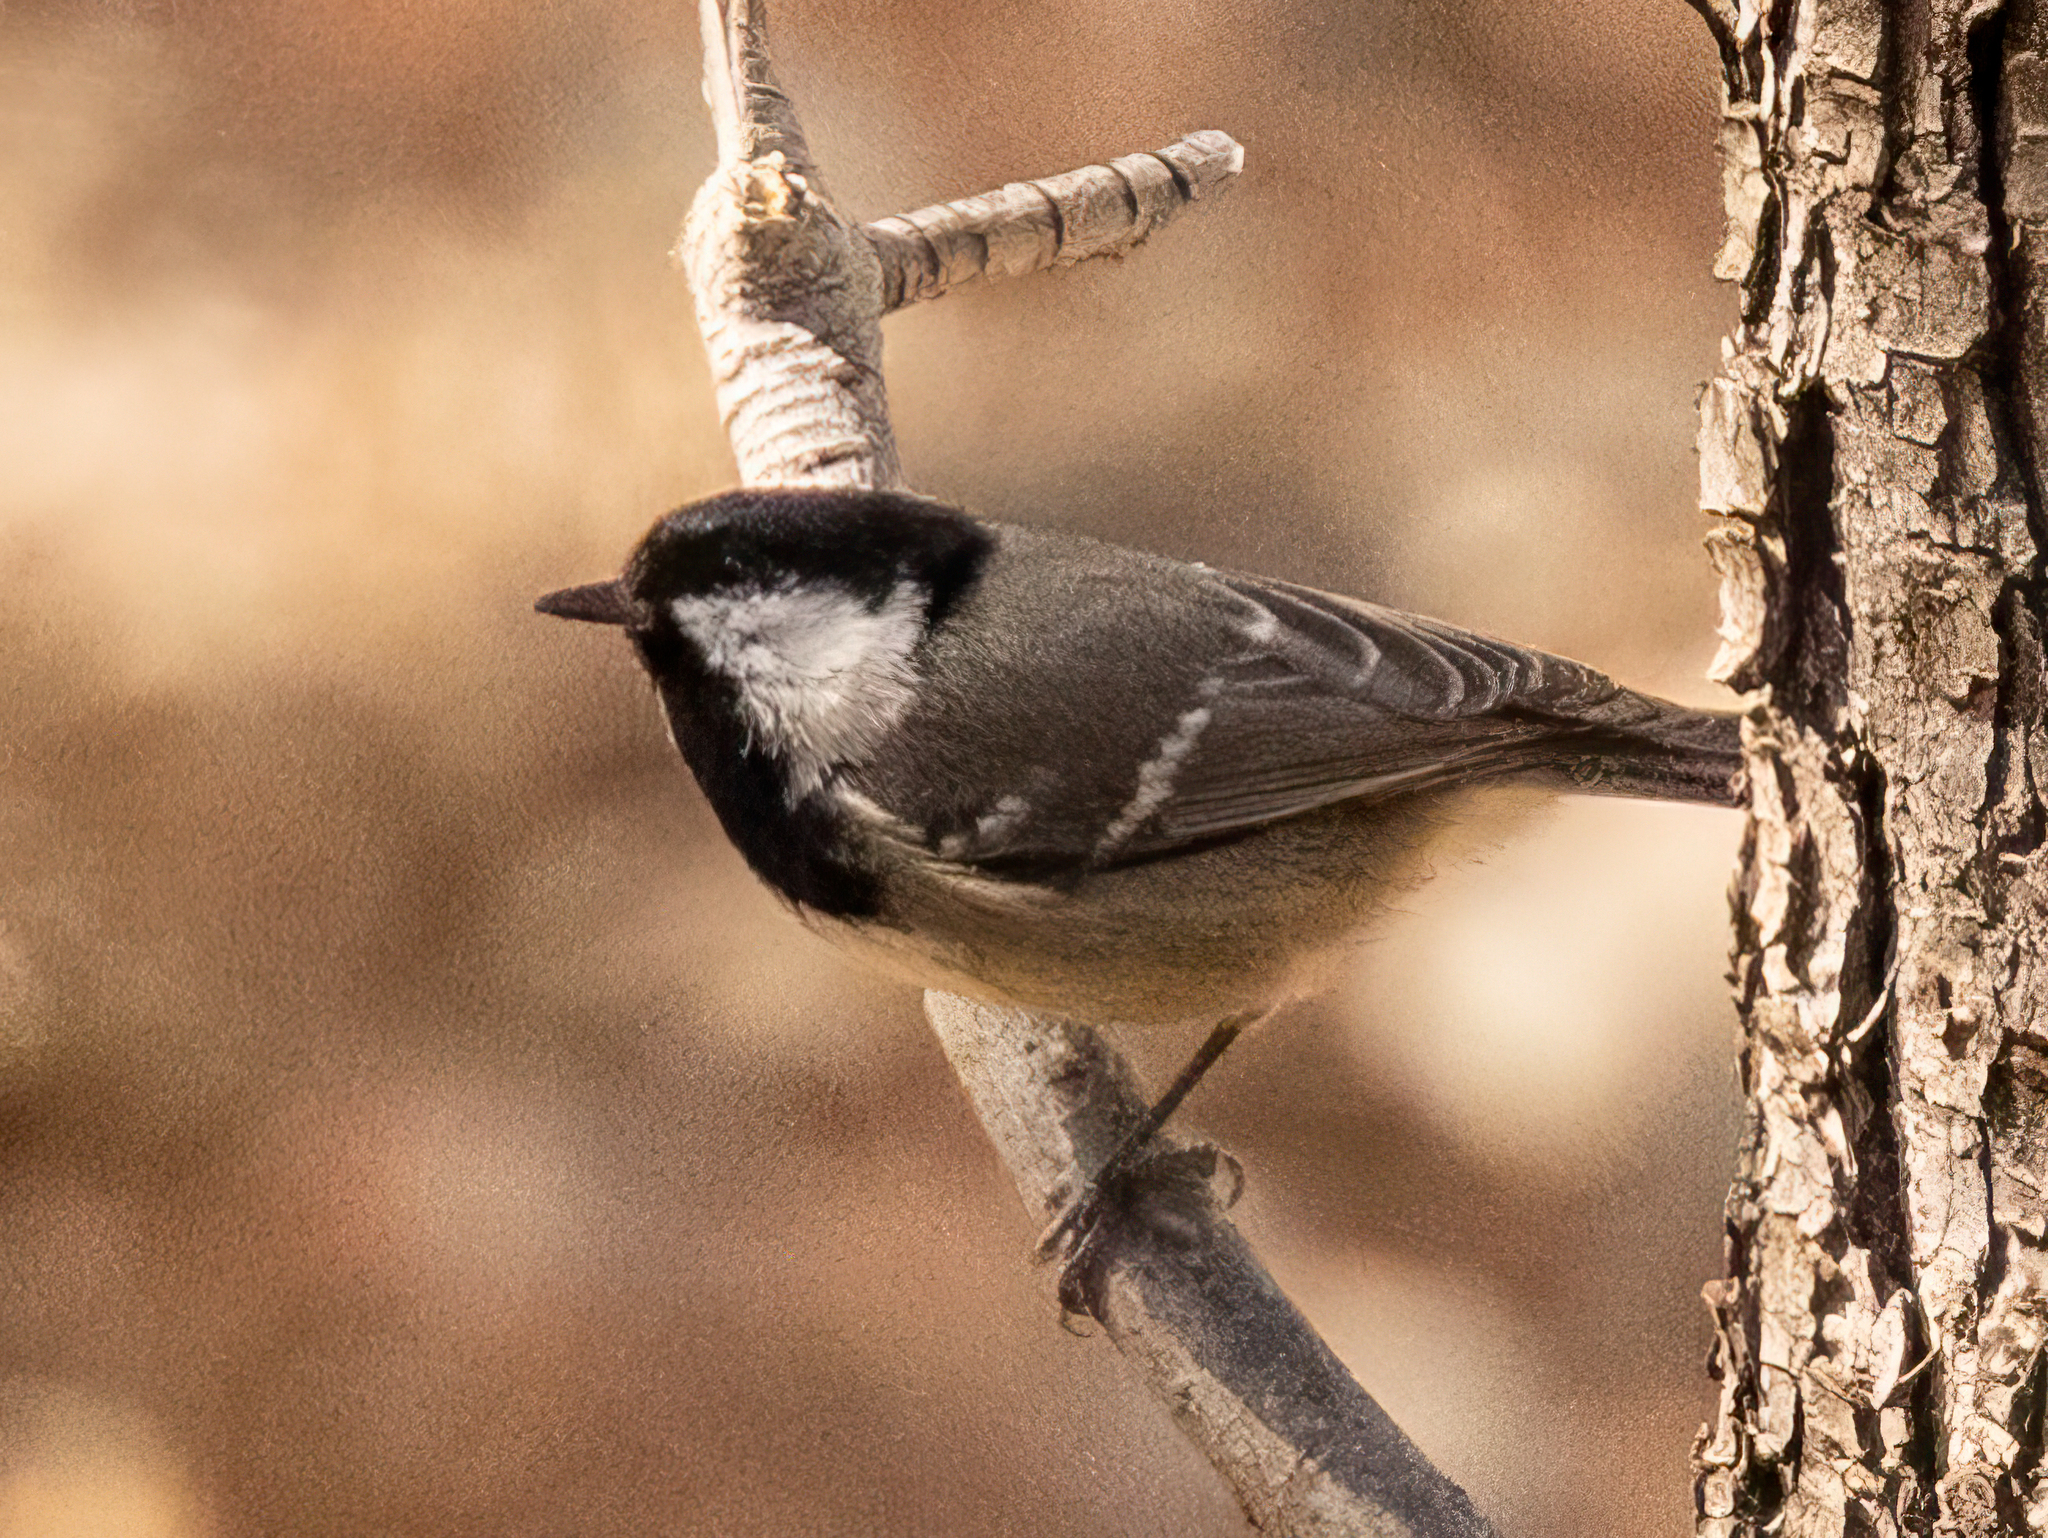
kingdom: Animalia
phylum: Chordata
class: Aves
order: Passeriformes
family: Paridae
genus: Periparus
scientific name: Periparus ater
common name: Coal tit
